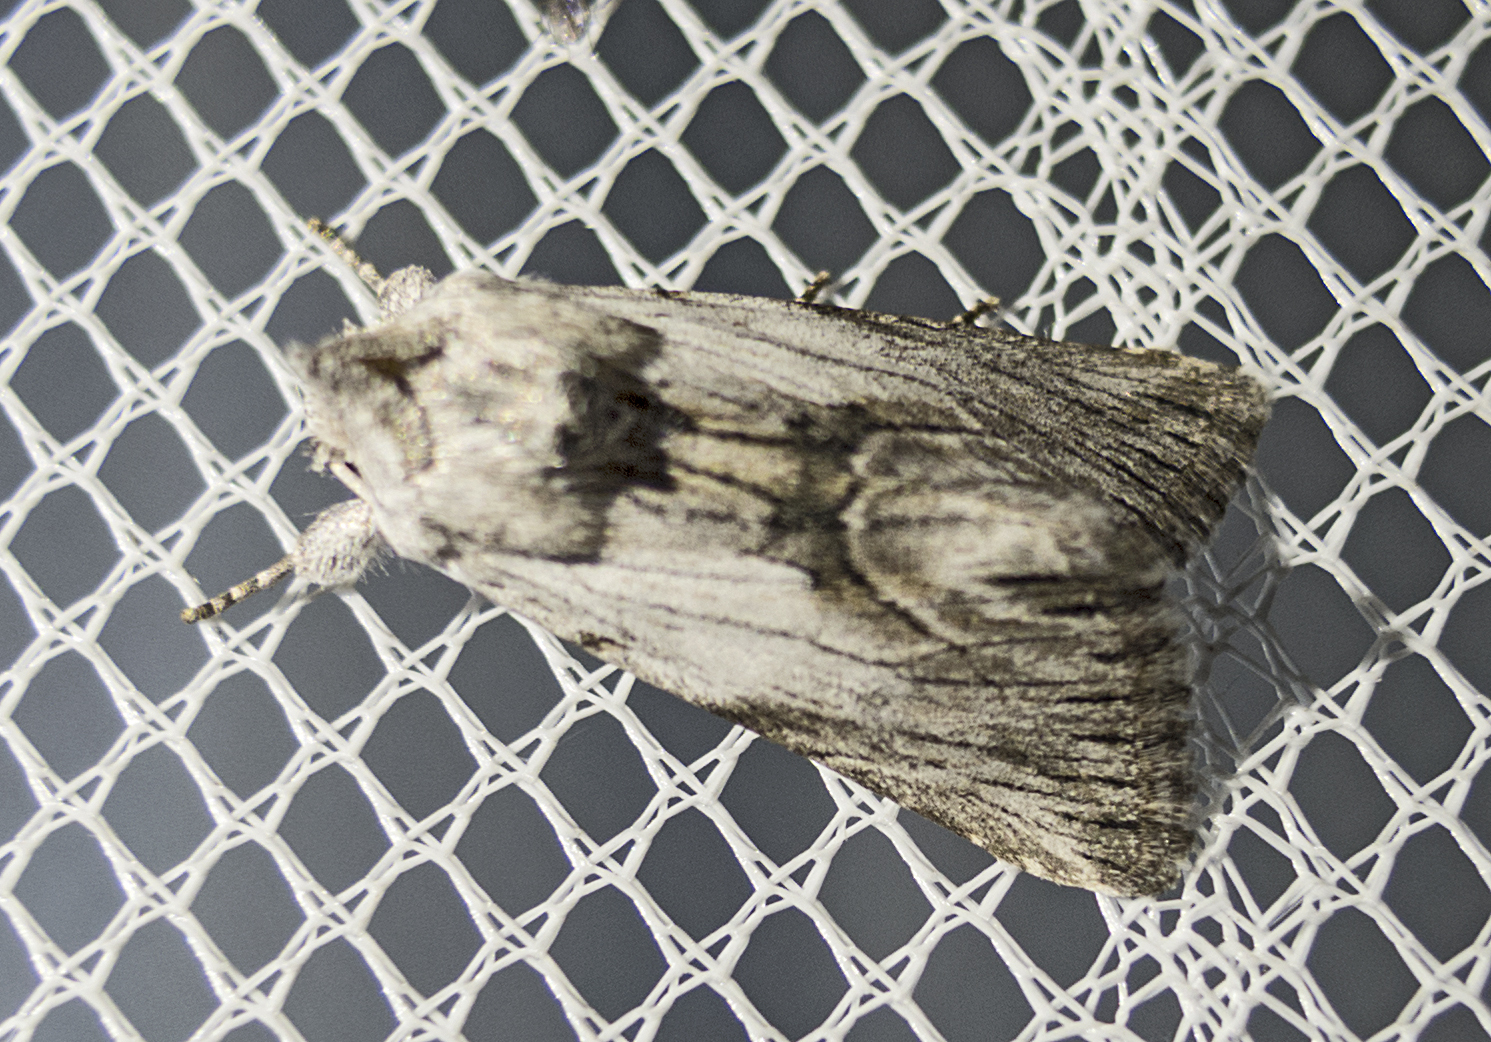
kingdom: Animalia
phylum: Arthropoda
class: Insecta
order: Lepidoptera
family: Noctuidae
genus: Calophasia
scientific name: Calophasia platyptera
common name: Antirrhinum brocade
